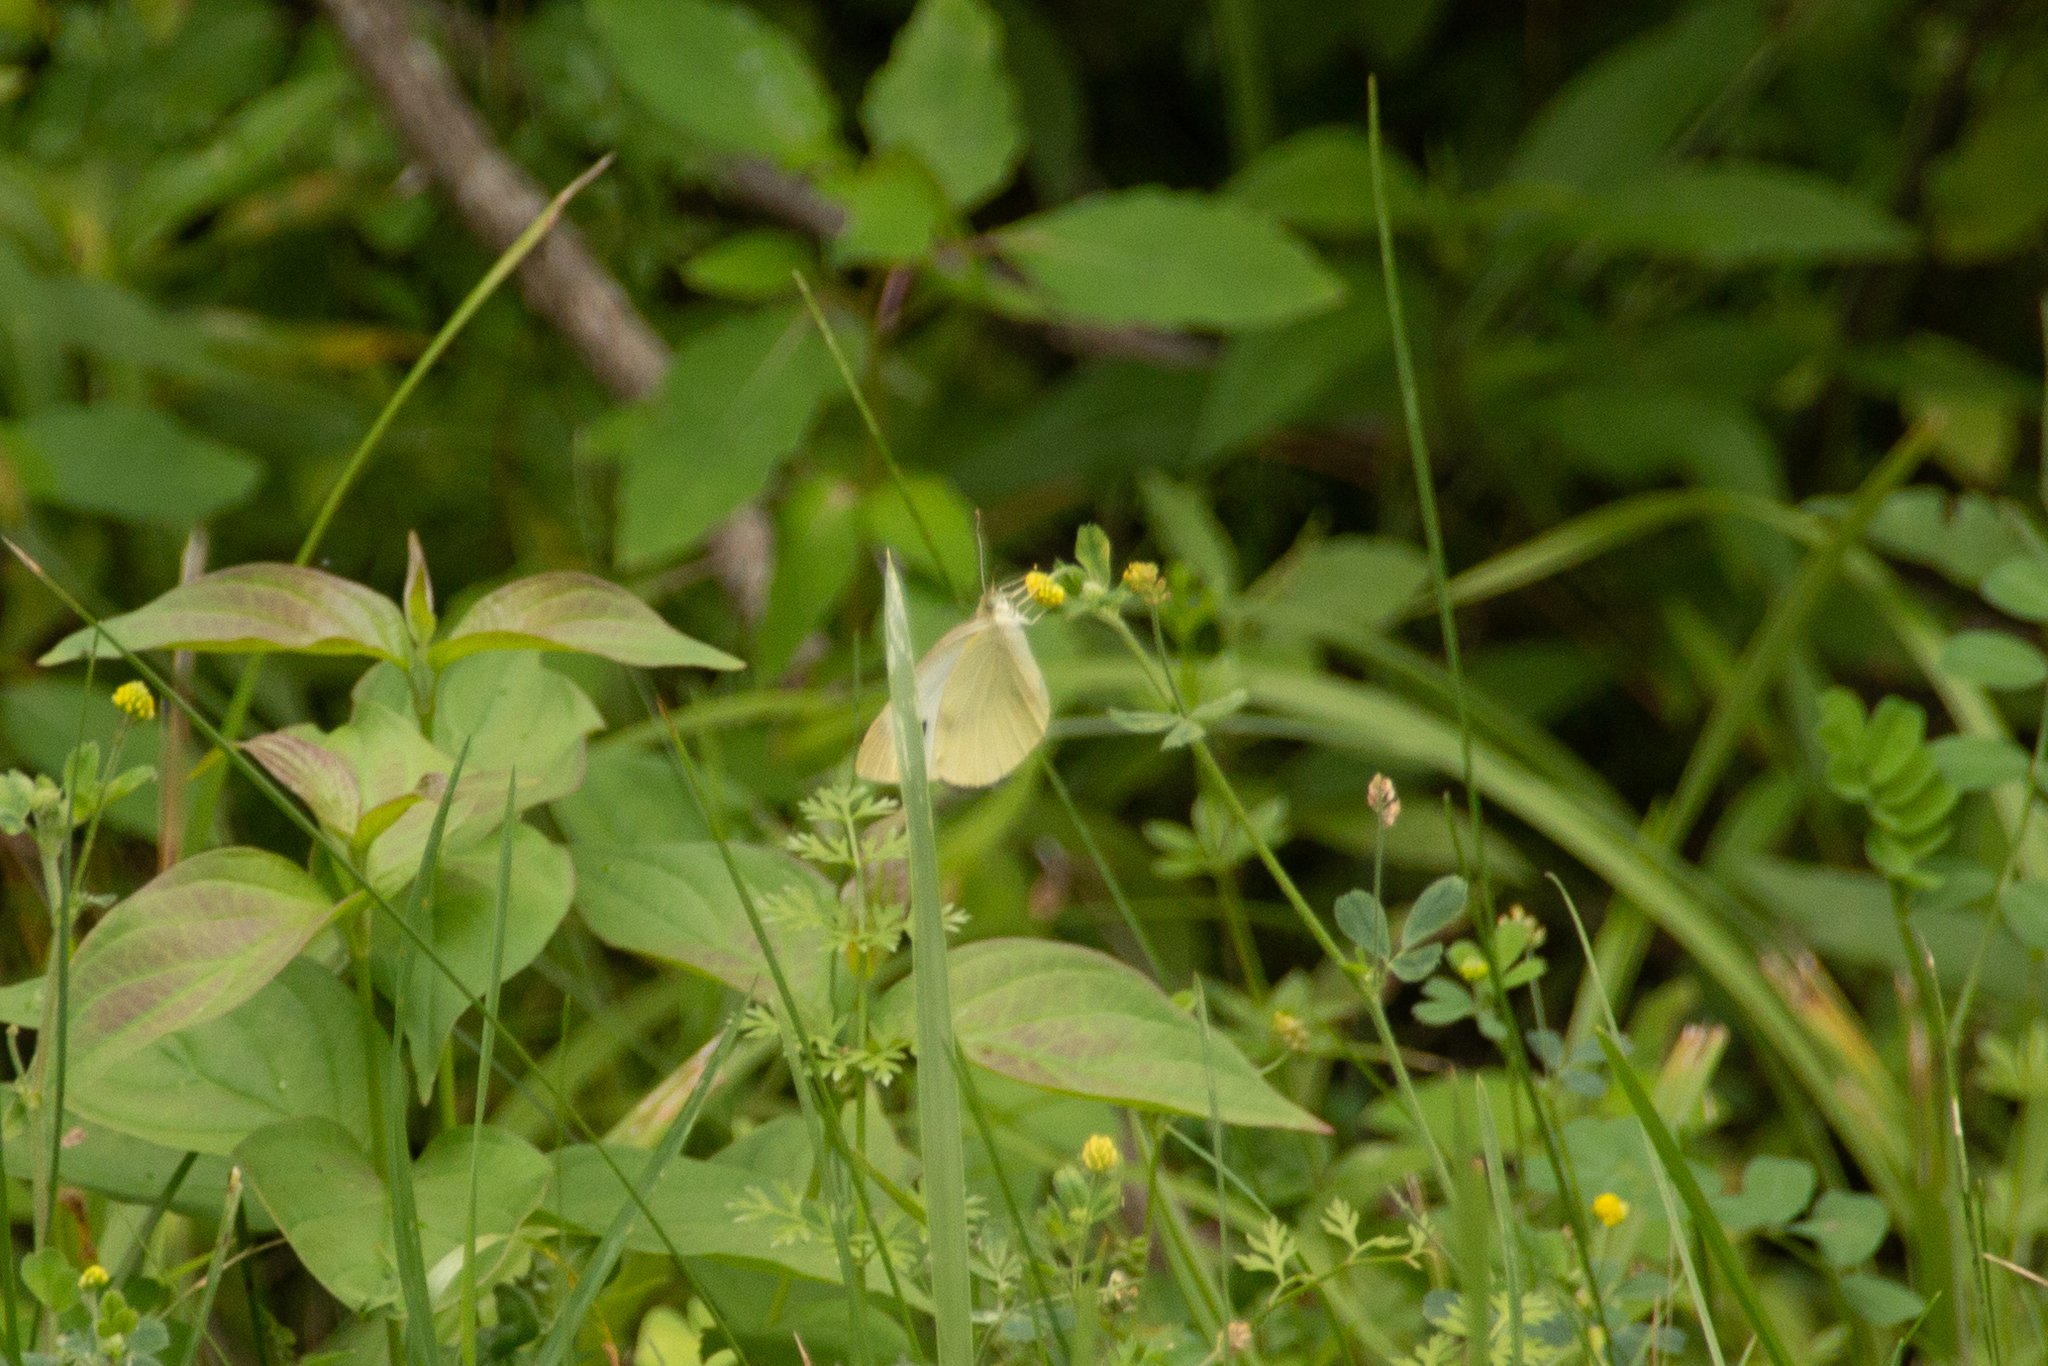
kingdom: Animalia
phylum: Arthropoda
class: Insecta
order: Lepidoptera
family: Pieridae
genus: Pieris
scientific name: Pieris rapae
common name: Small white
